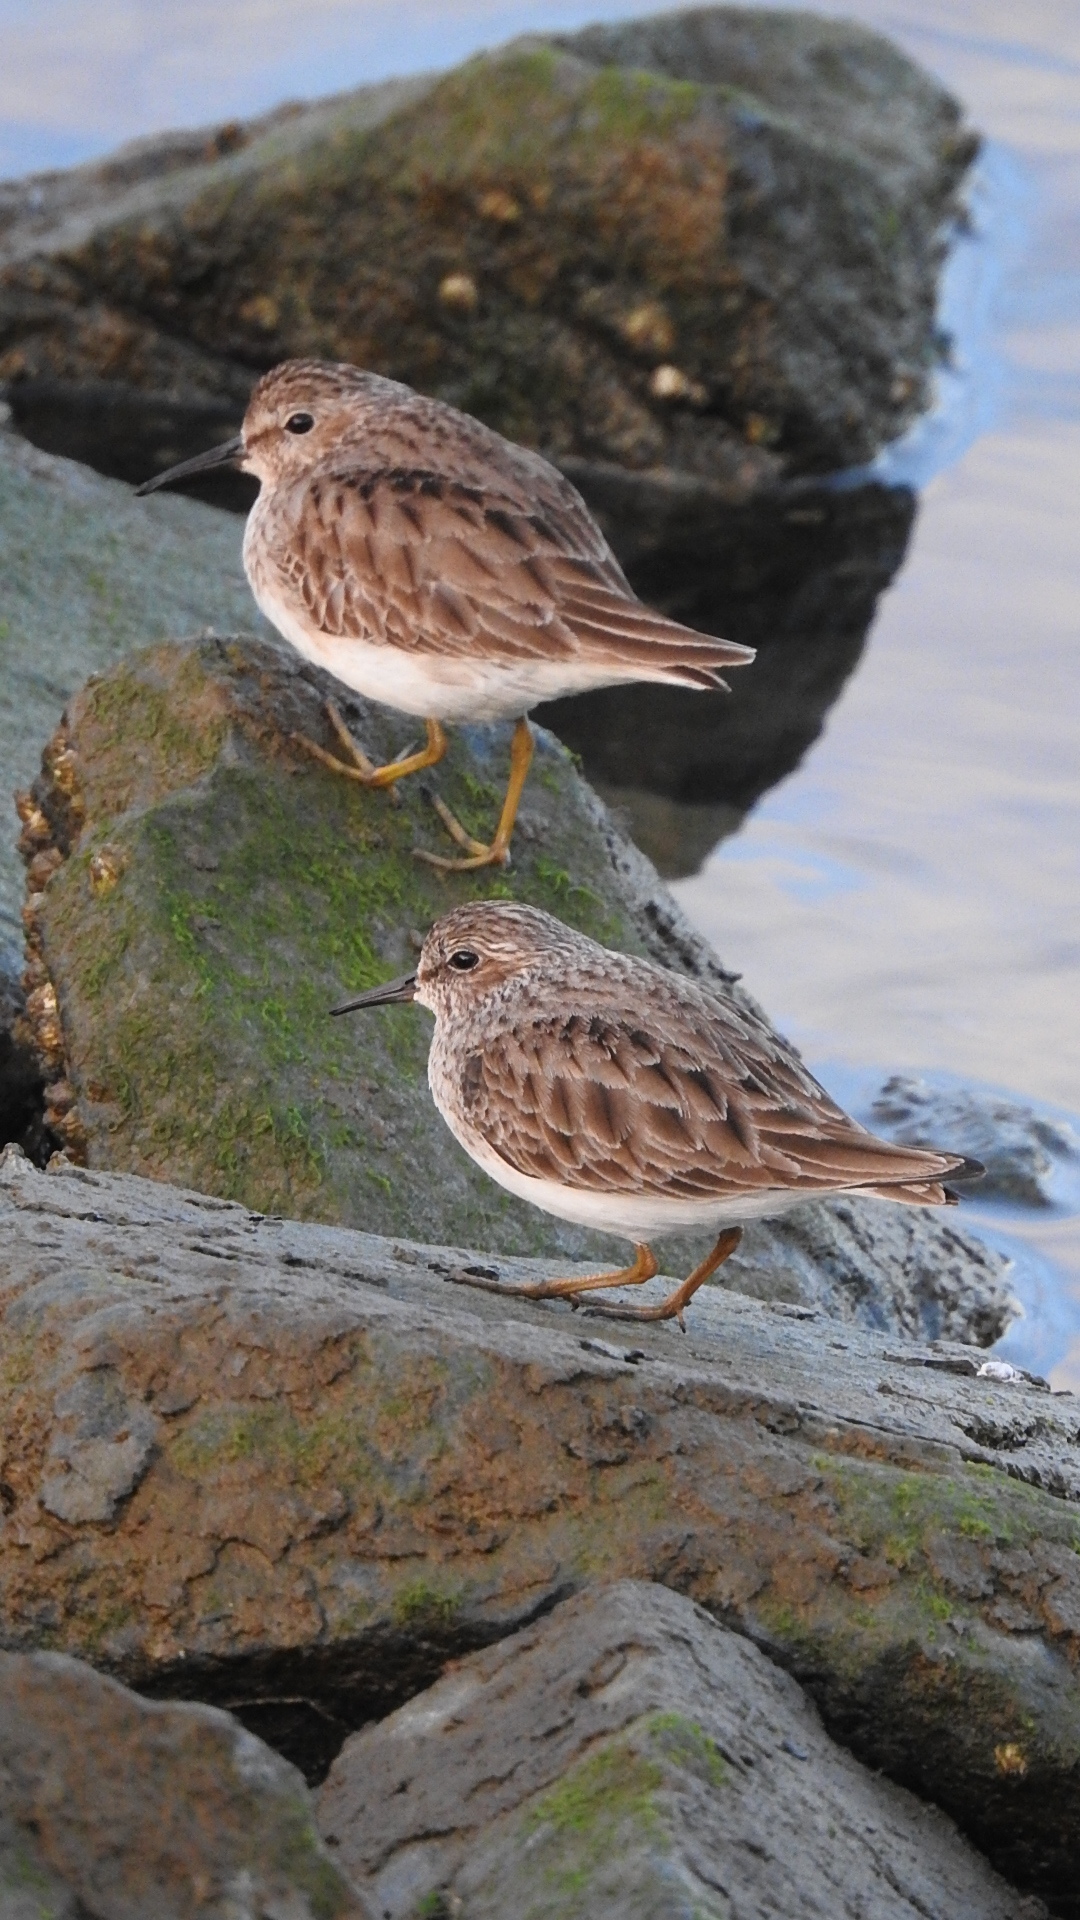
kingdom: Animalia
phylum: Chordata
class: Aves
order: Charadriiformes
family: Scolopacidae
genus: Calidris
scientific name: Calidris minutilla
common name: Least sandpiper
